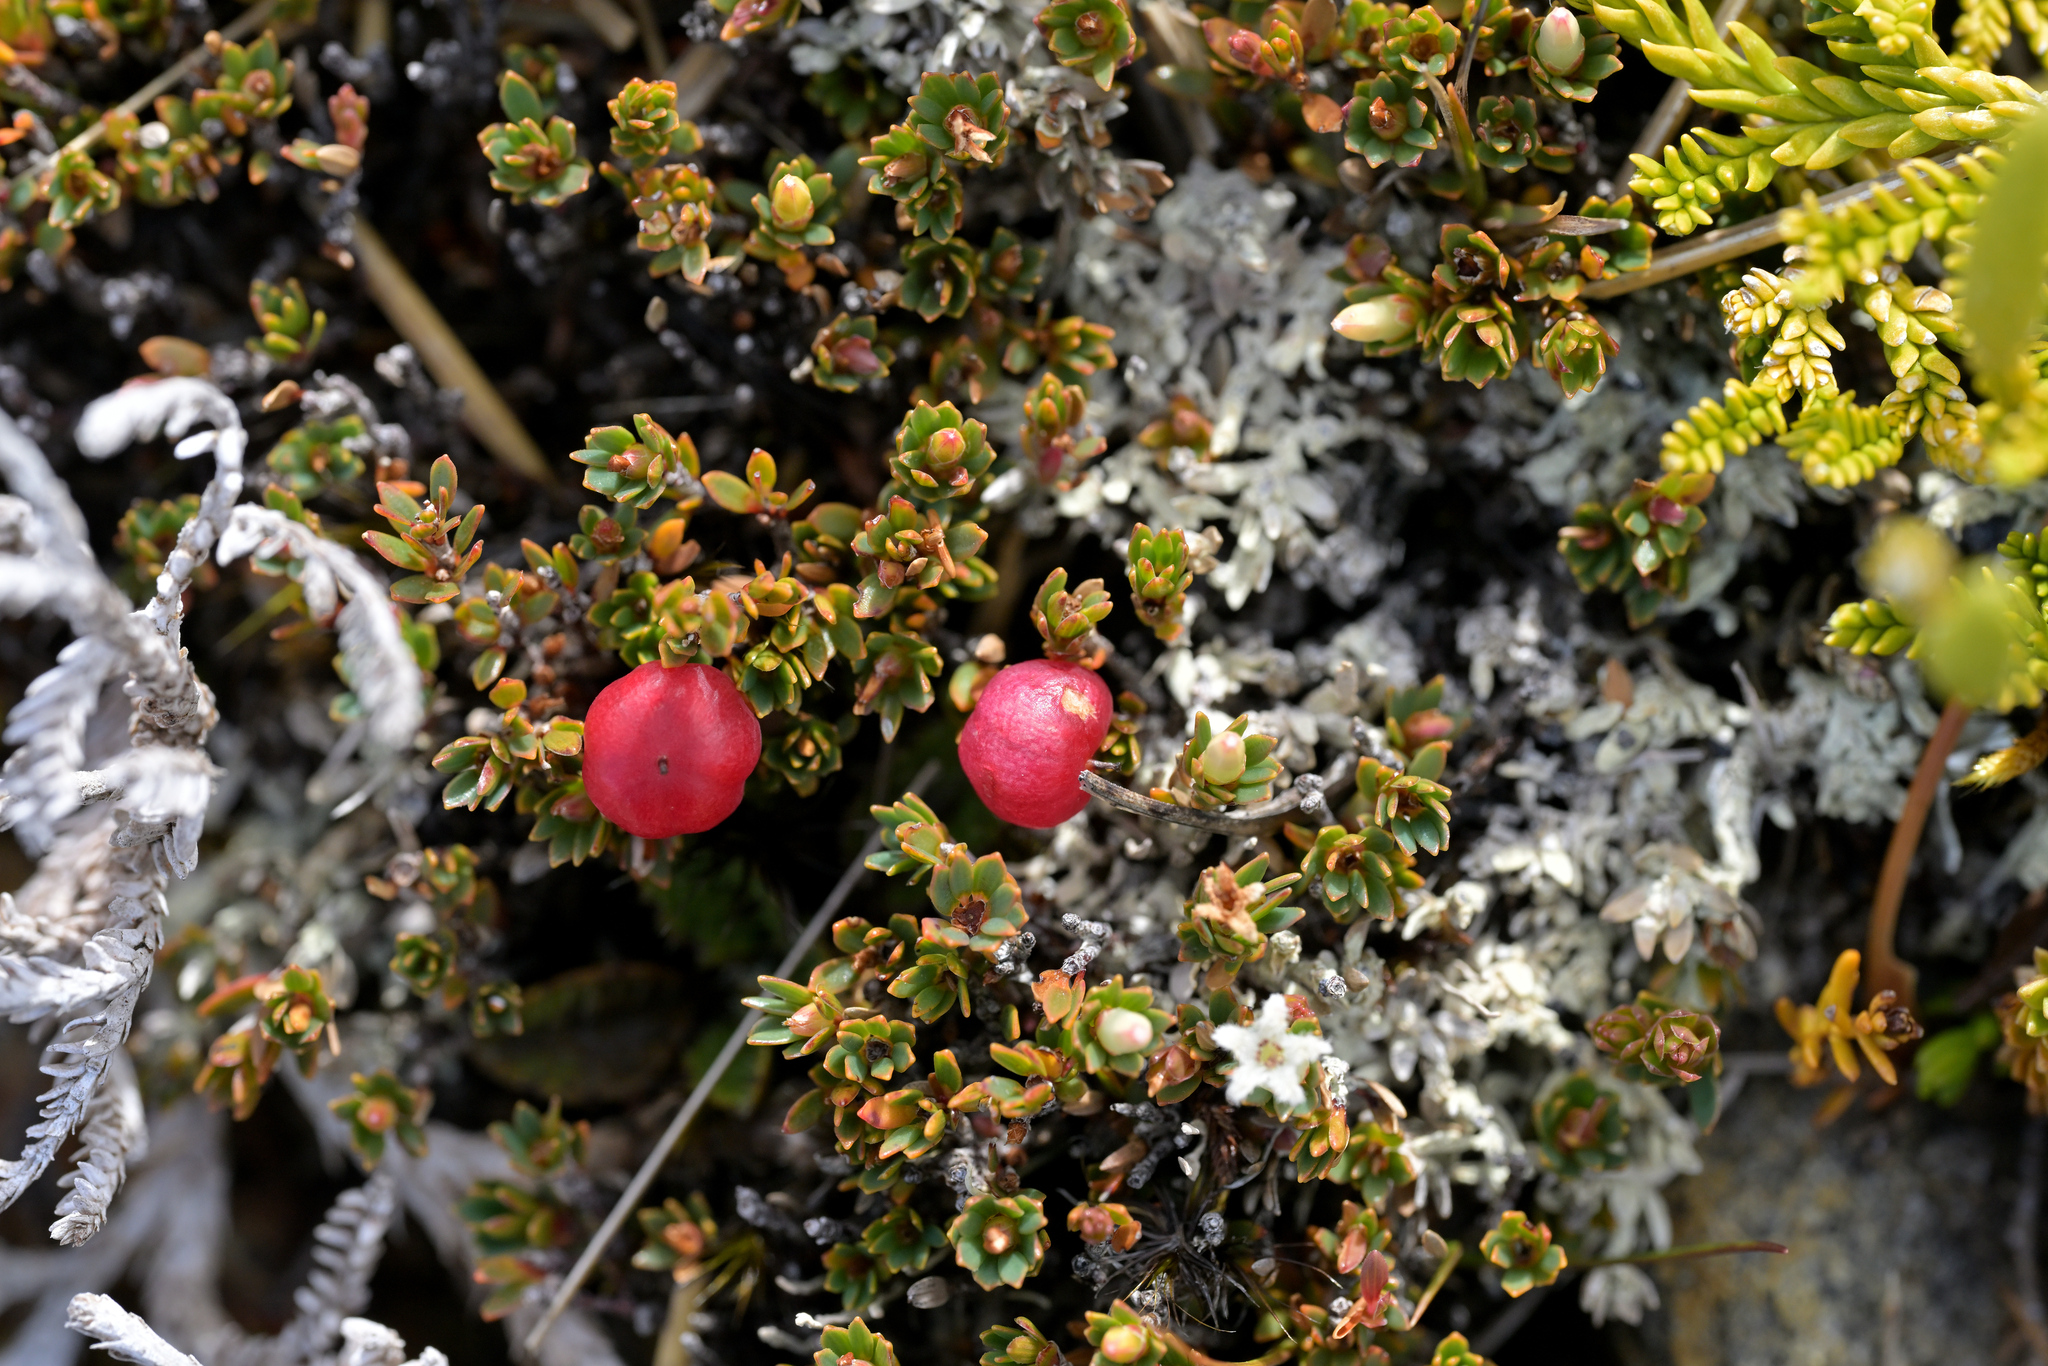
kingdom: Plantae
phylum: Tracheophyta
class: Magnoliopsida
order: Ericales
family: Ericaceae
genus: Pentachondra
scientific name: Pentachondra pumila
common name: Carpet-heath
